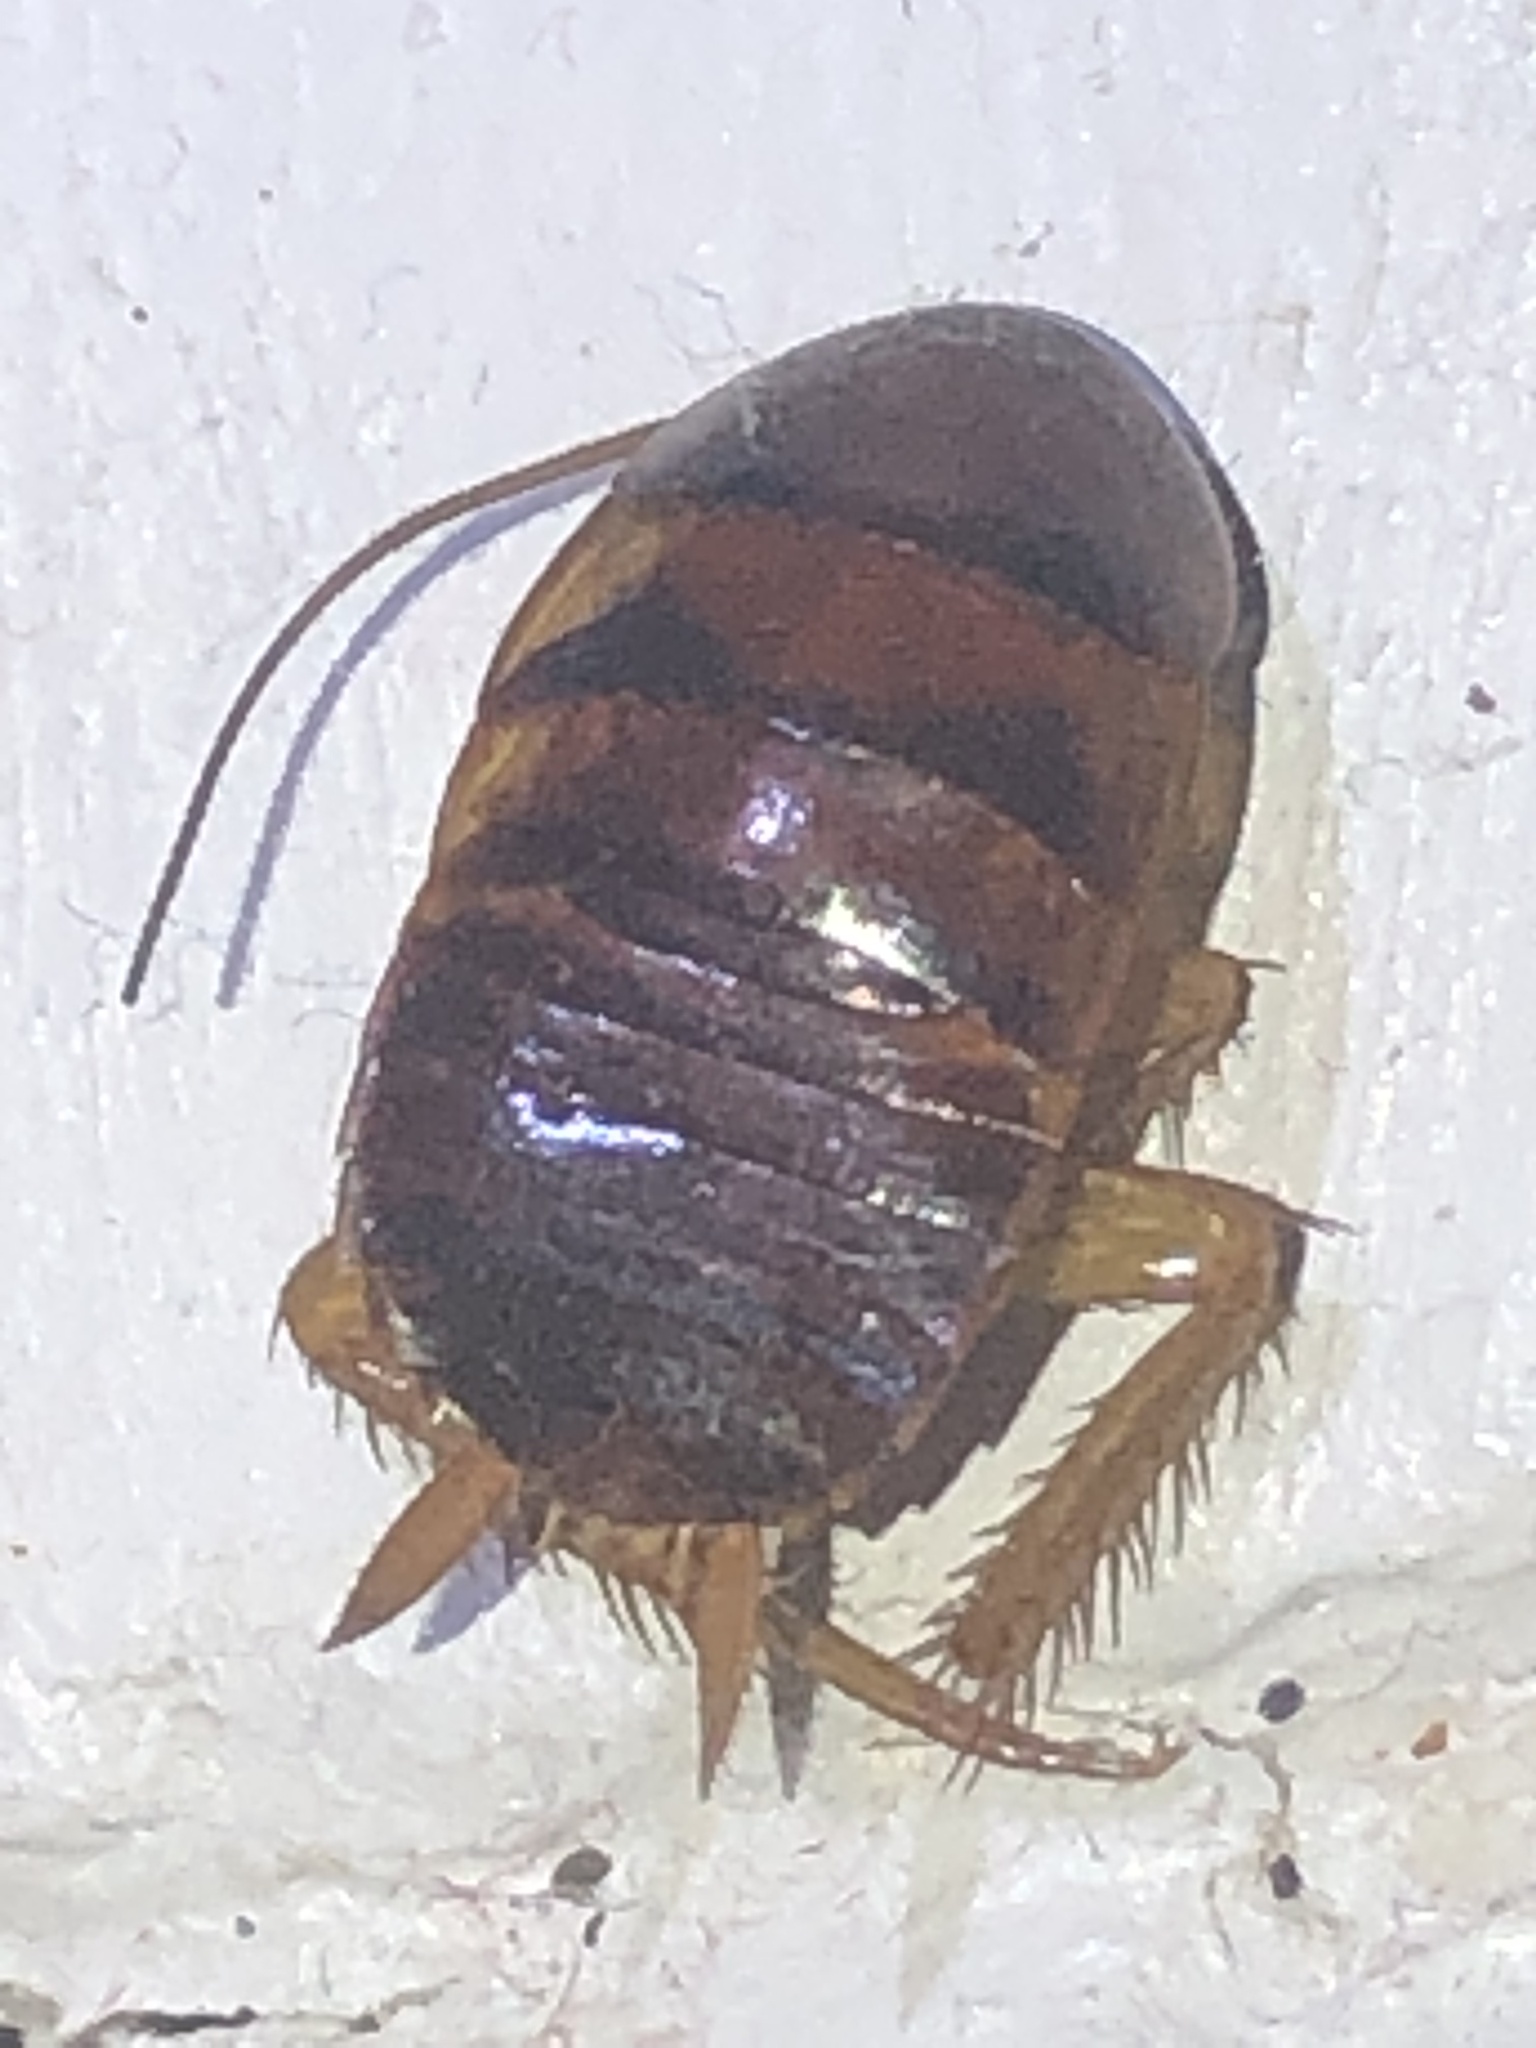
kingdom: Animalia
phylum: Arthropoda
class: Insecta
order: Blattodea
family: Blattidae
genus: Periplaneta
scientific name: Periplaneta americana
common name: American cockroach
